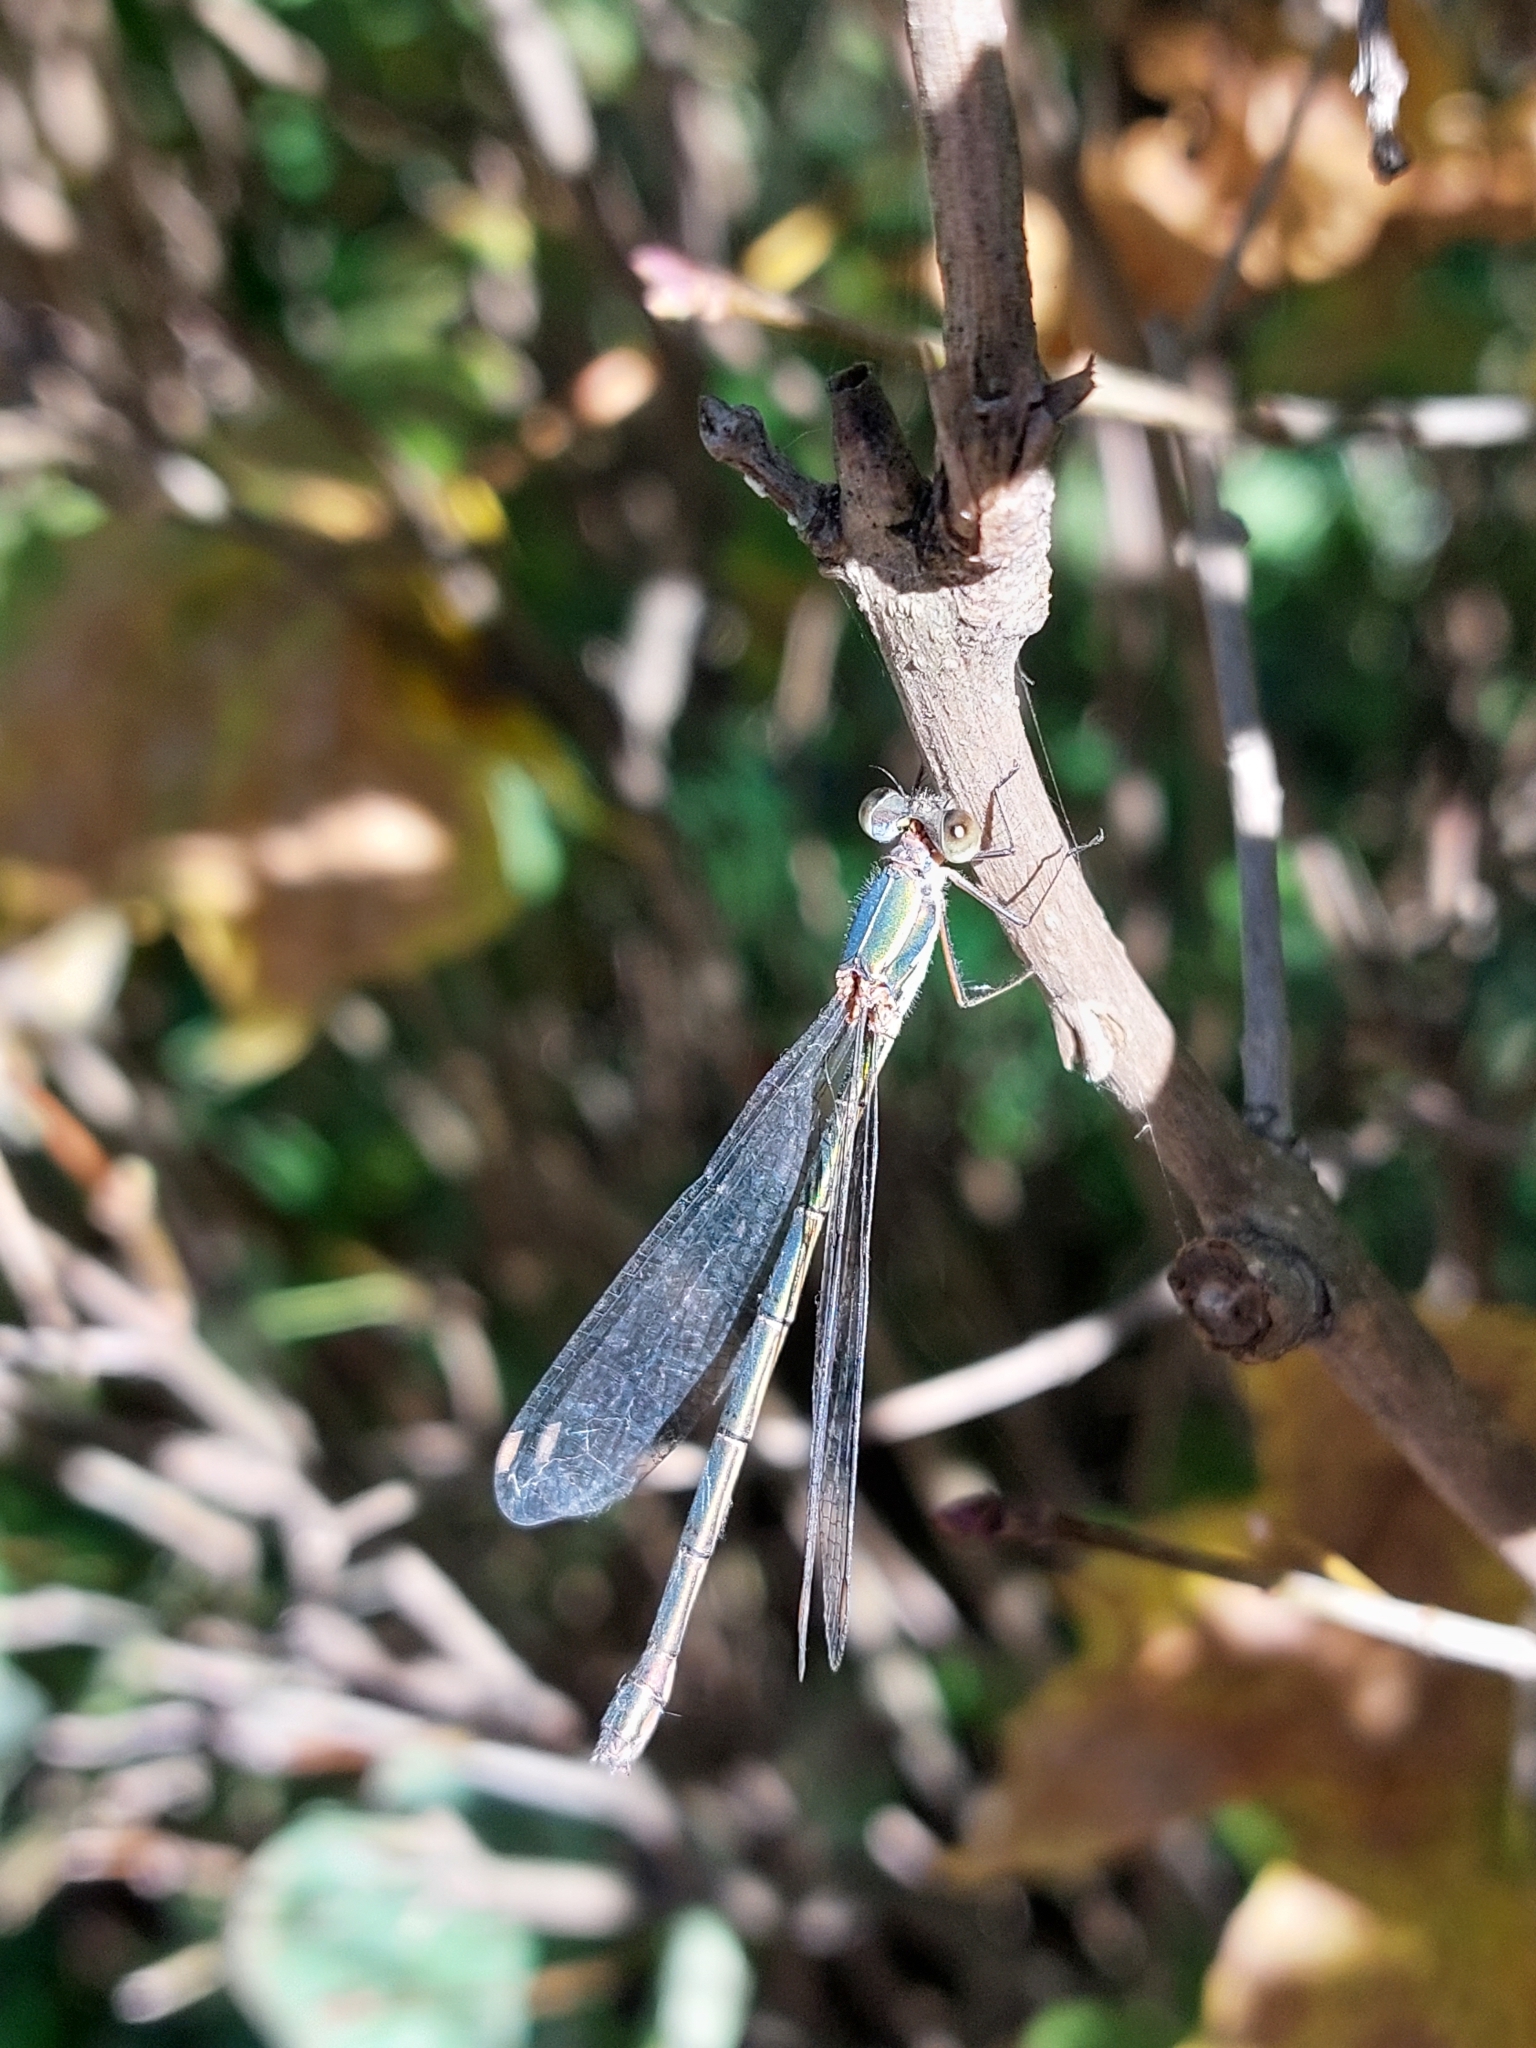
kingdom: Animalia
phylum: Arthropoda
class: Insecta
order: Odonata
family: Lestidae
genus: Chalcolestes
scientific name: Chalcolestes parvidens
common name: Eastern willow spreadwing
